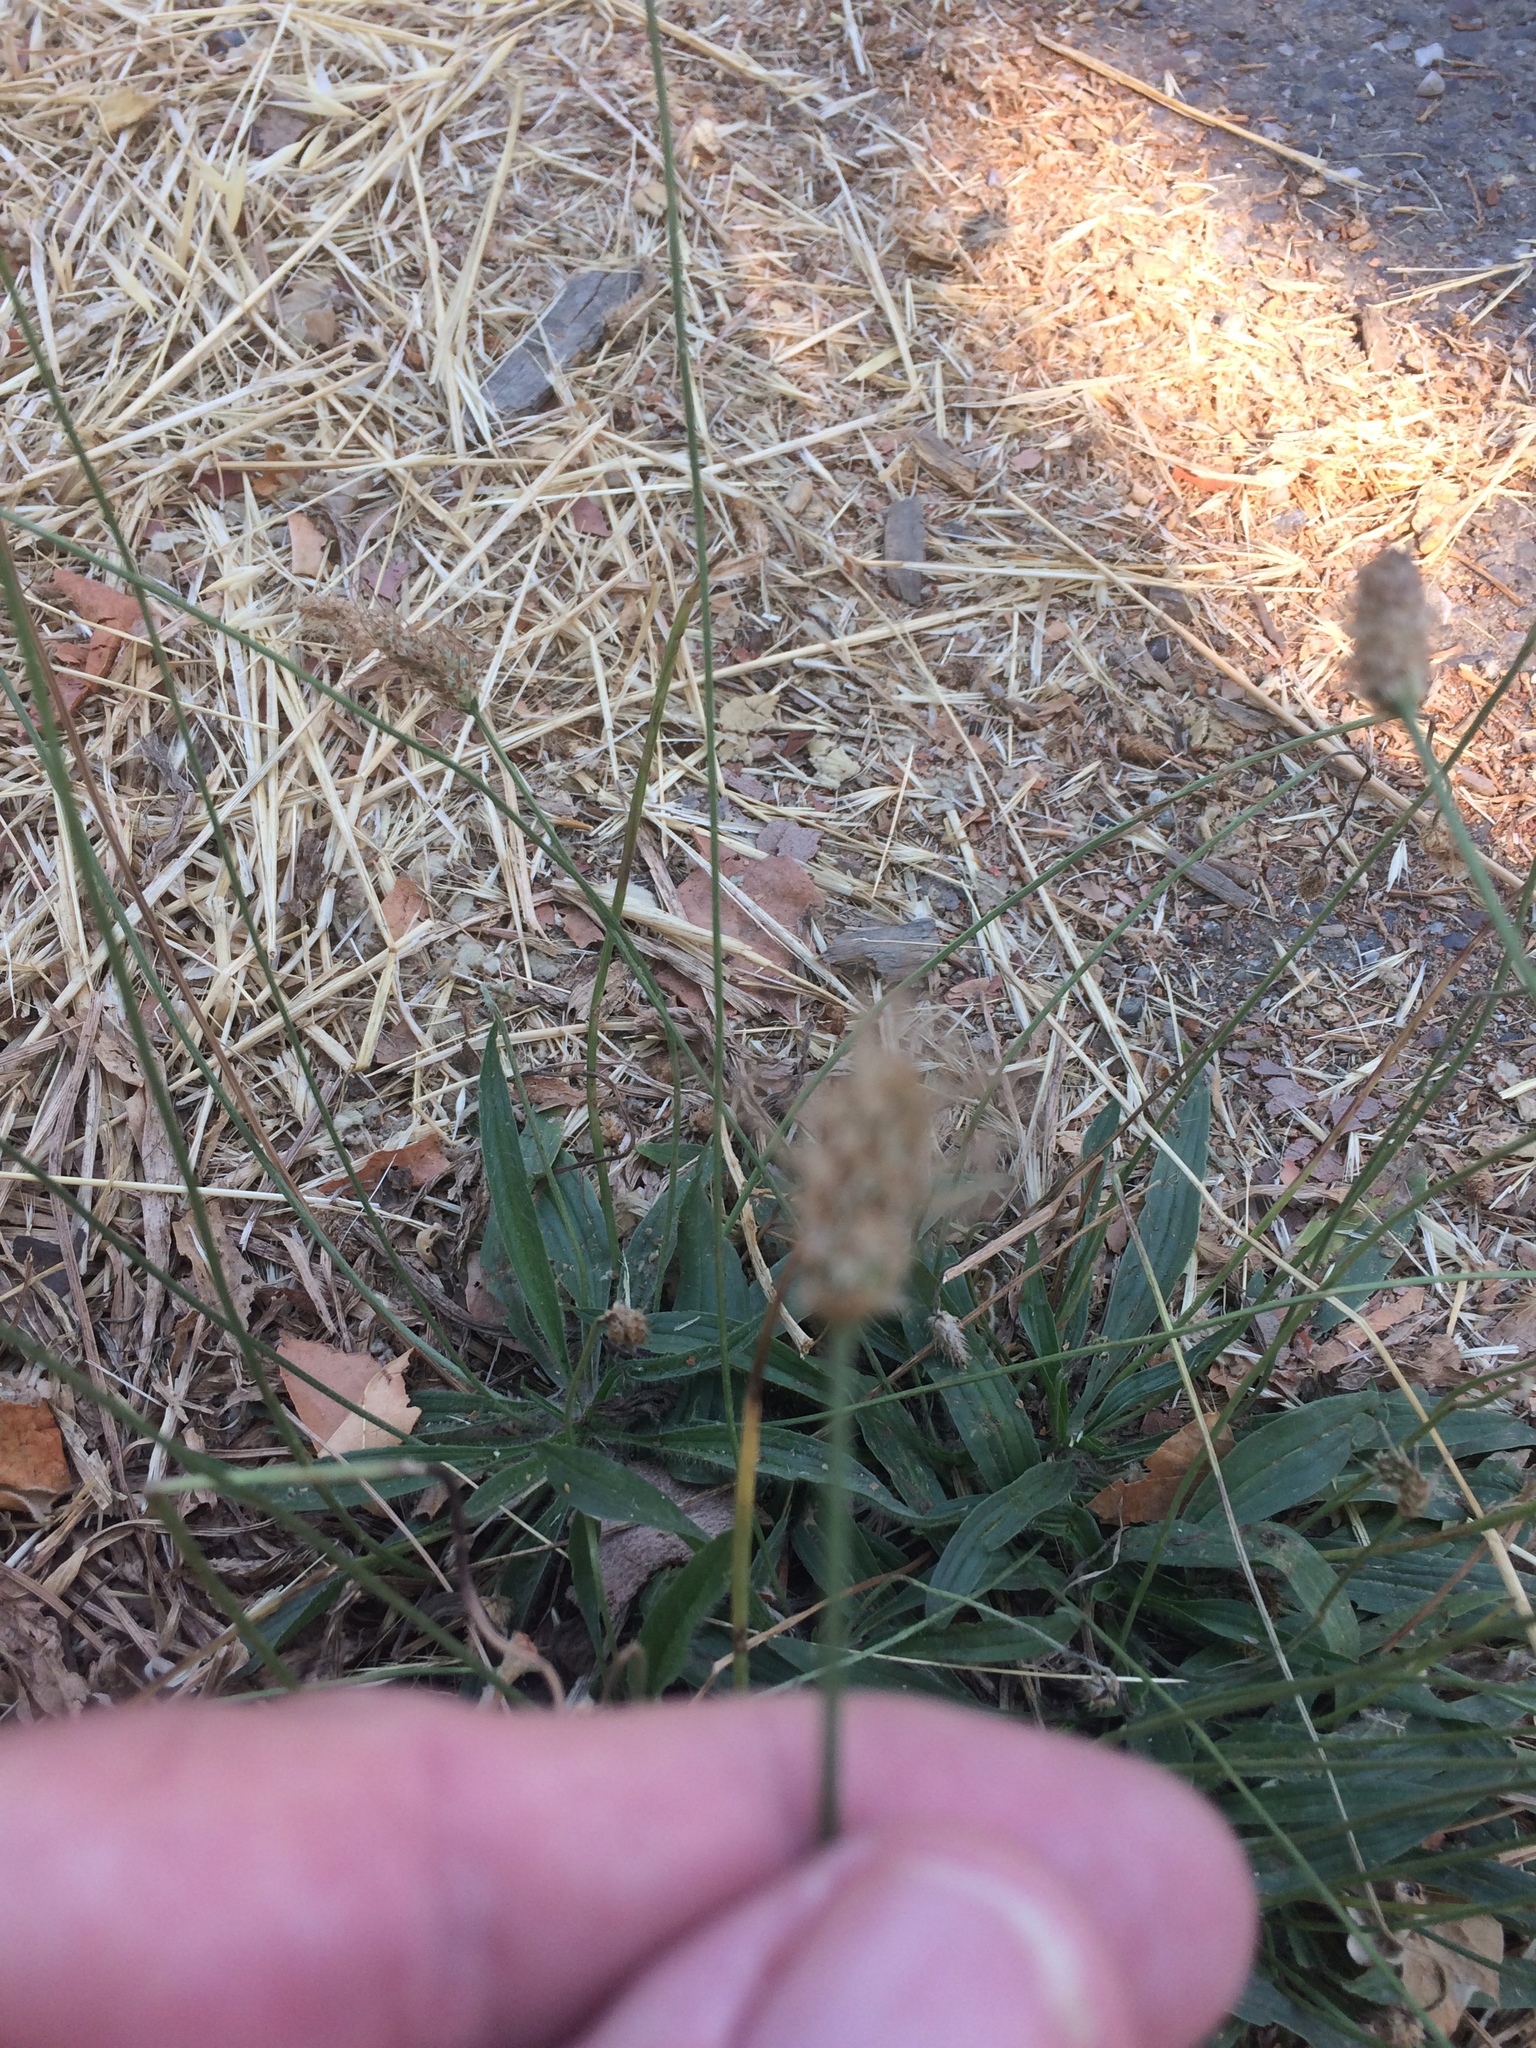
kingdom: Plantae
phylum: Tracheophyta
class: Magnoliopsida
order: Lamiales
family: Plantaginaceae
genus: Plantago
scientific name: Plantago lanceolata
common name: Ribwort plantain
